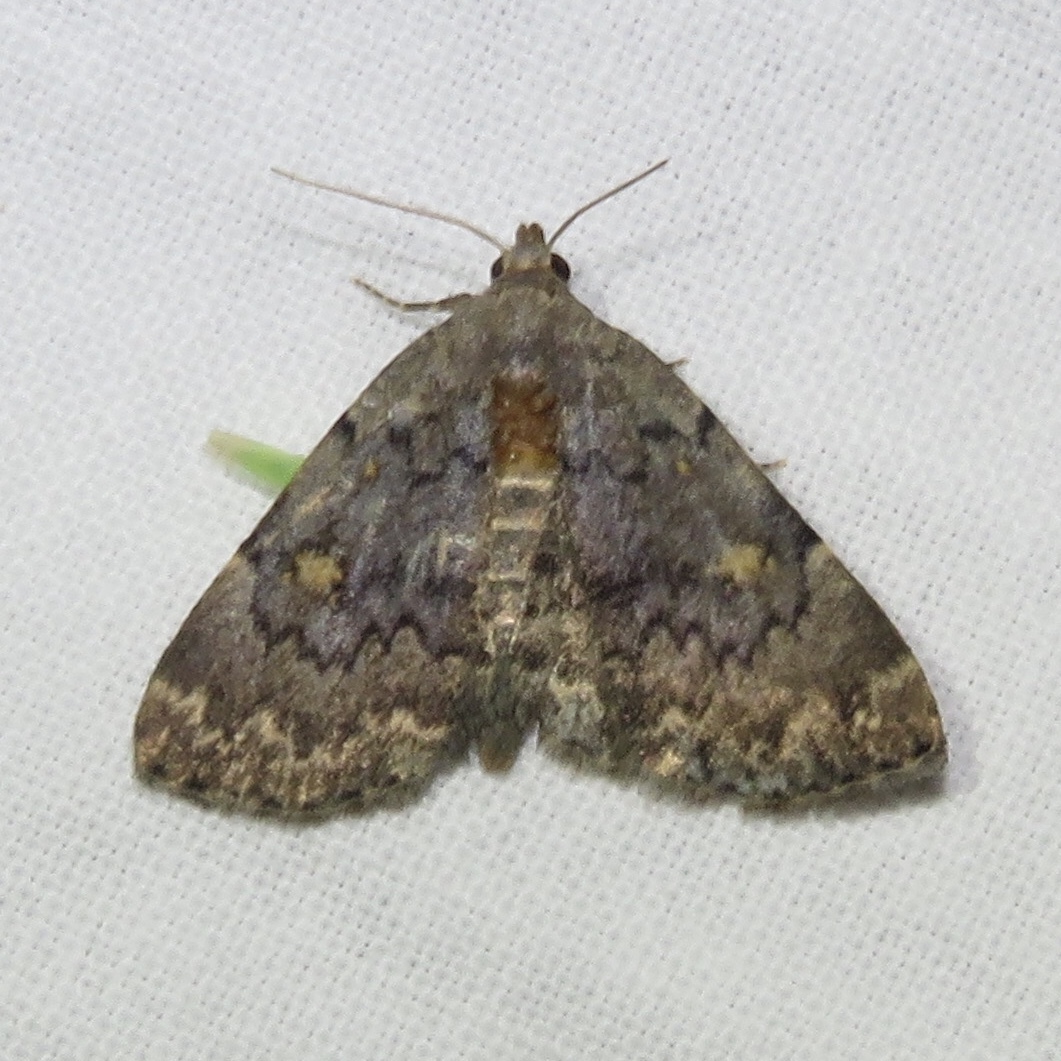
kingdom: Animalia
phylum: Arthropoda
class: Insecta
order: Lepidoptera
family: Erebidae
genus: Idia
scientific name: Idia aemula
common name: Common idia moth
